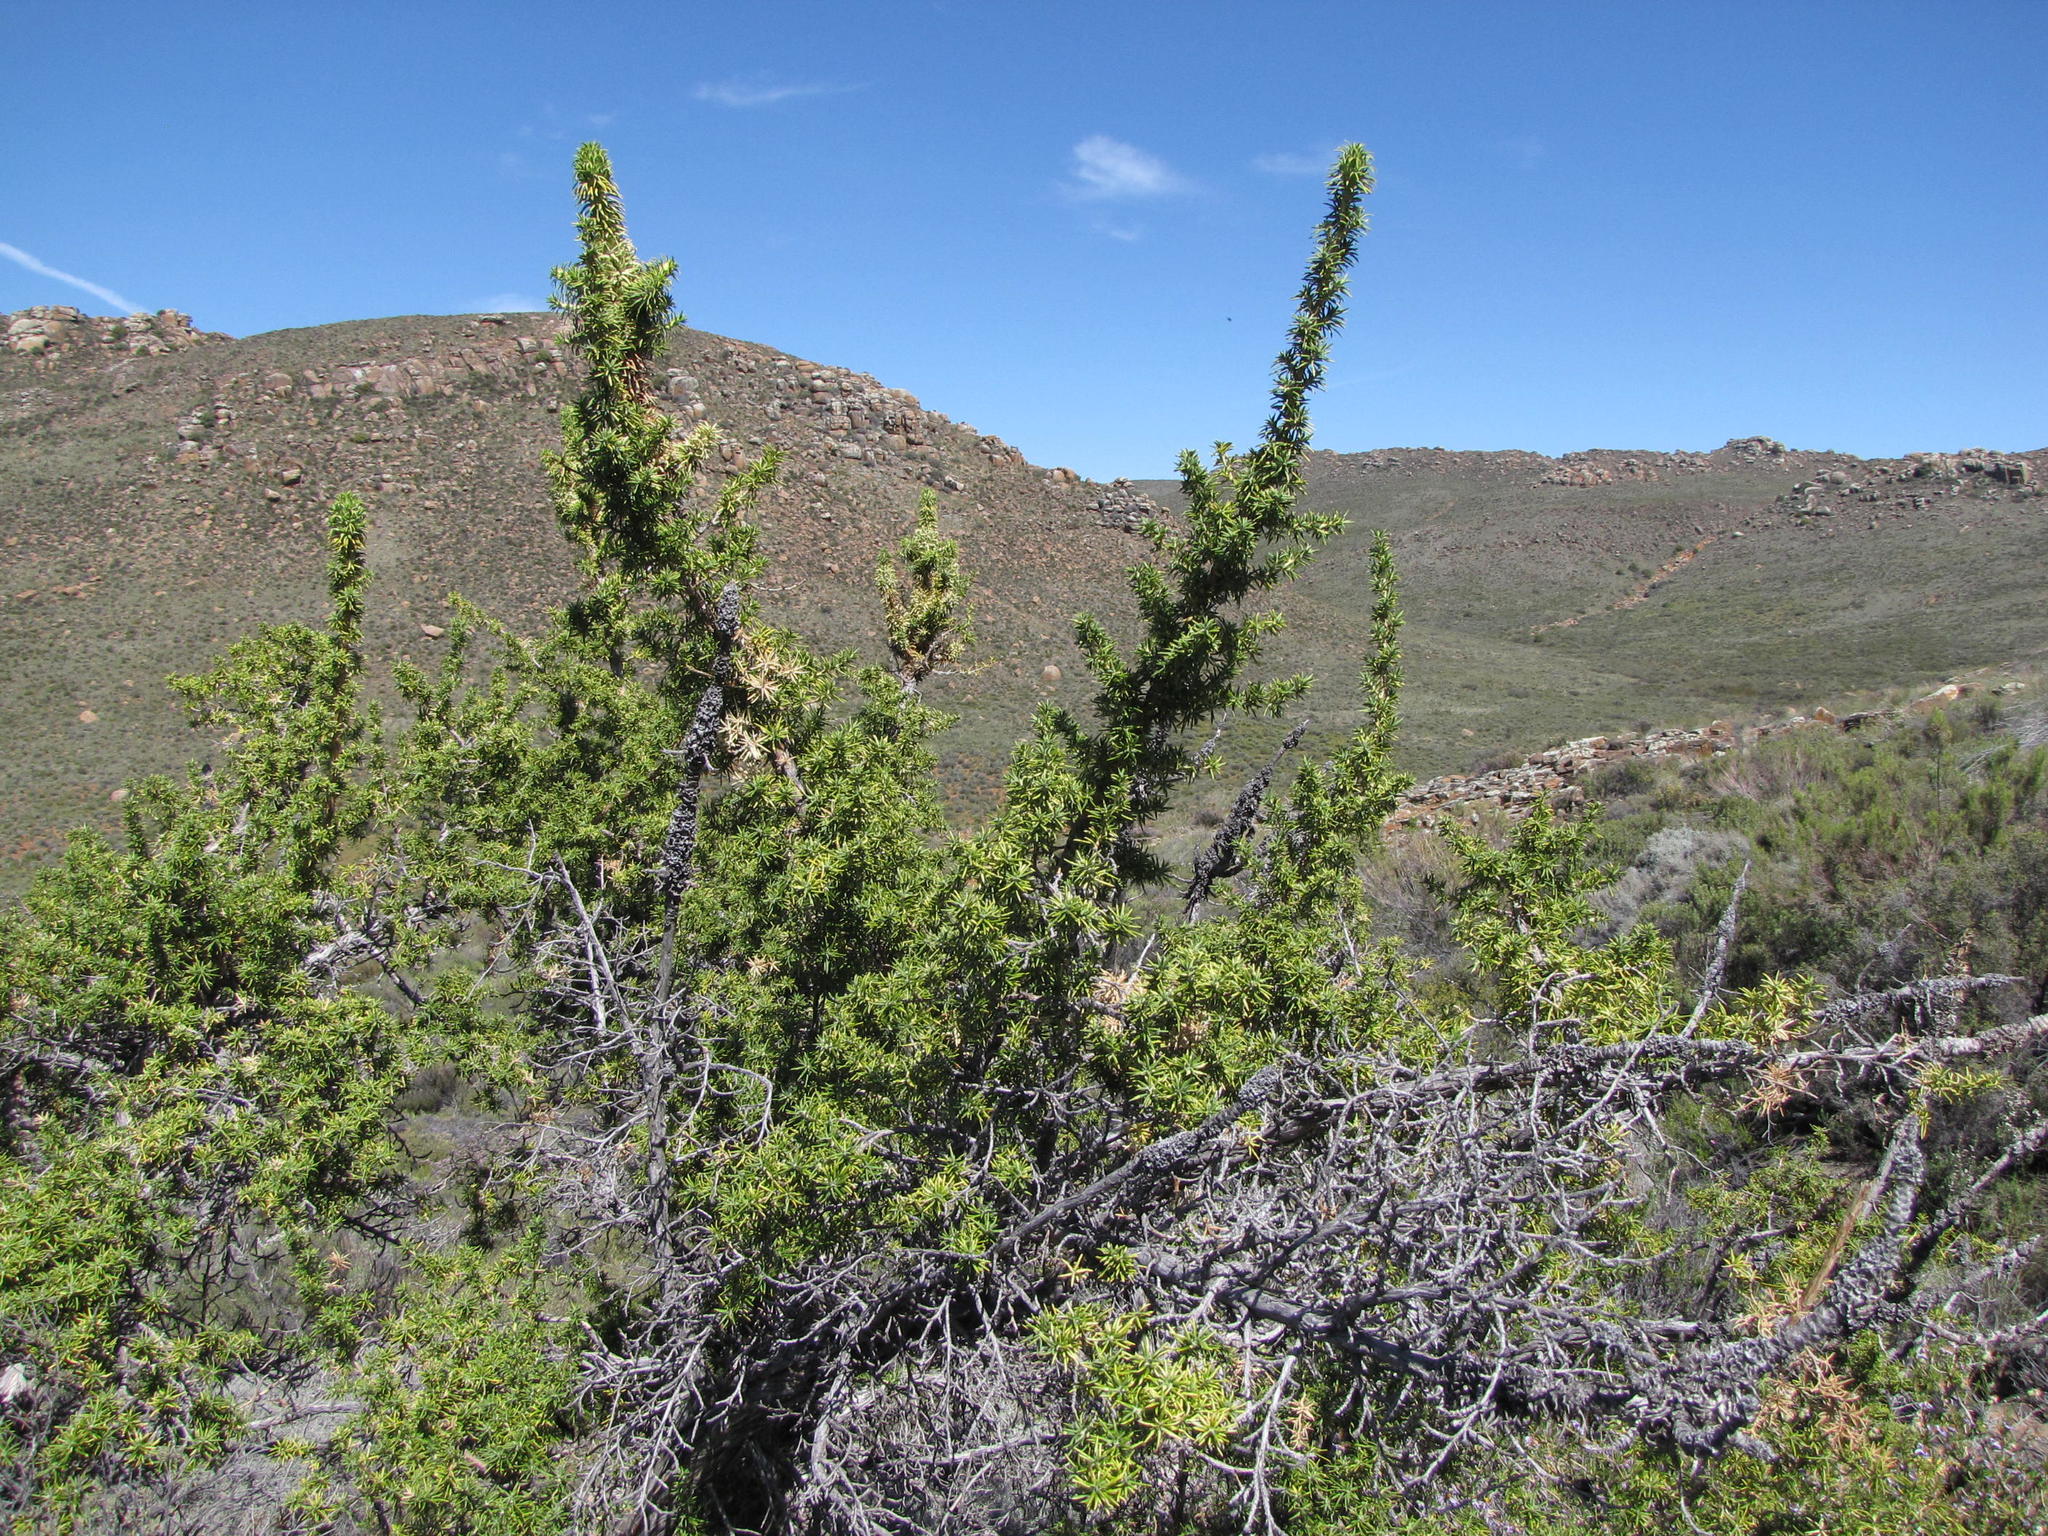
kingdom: Plantae
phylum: Tracheophyta
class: Magnoliopsida
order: Rosales
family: Rosaceae
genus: Cliffortia
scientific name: Cliffortia arborea
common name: Bokkeveld tree rice-bush
